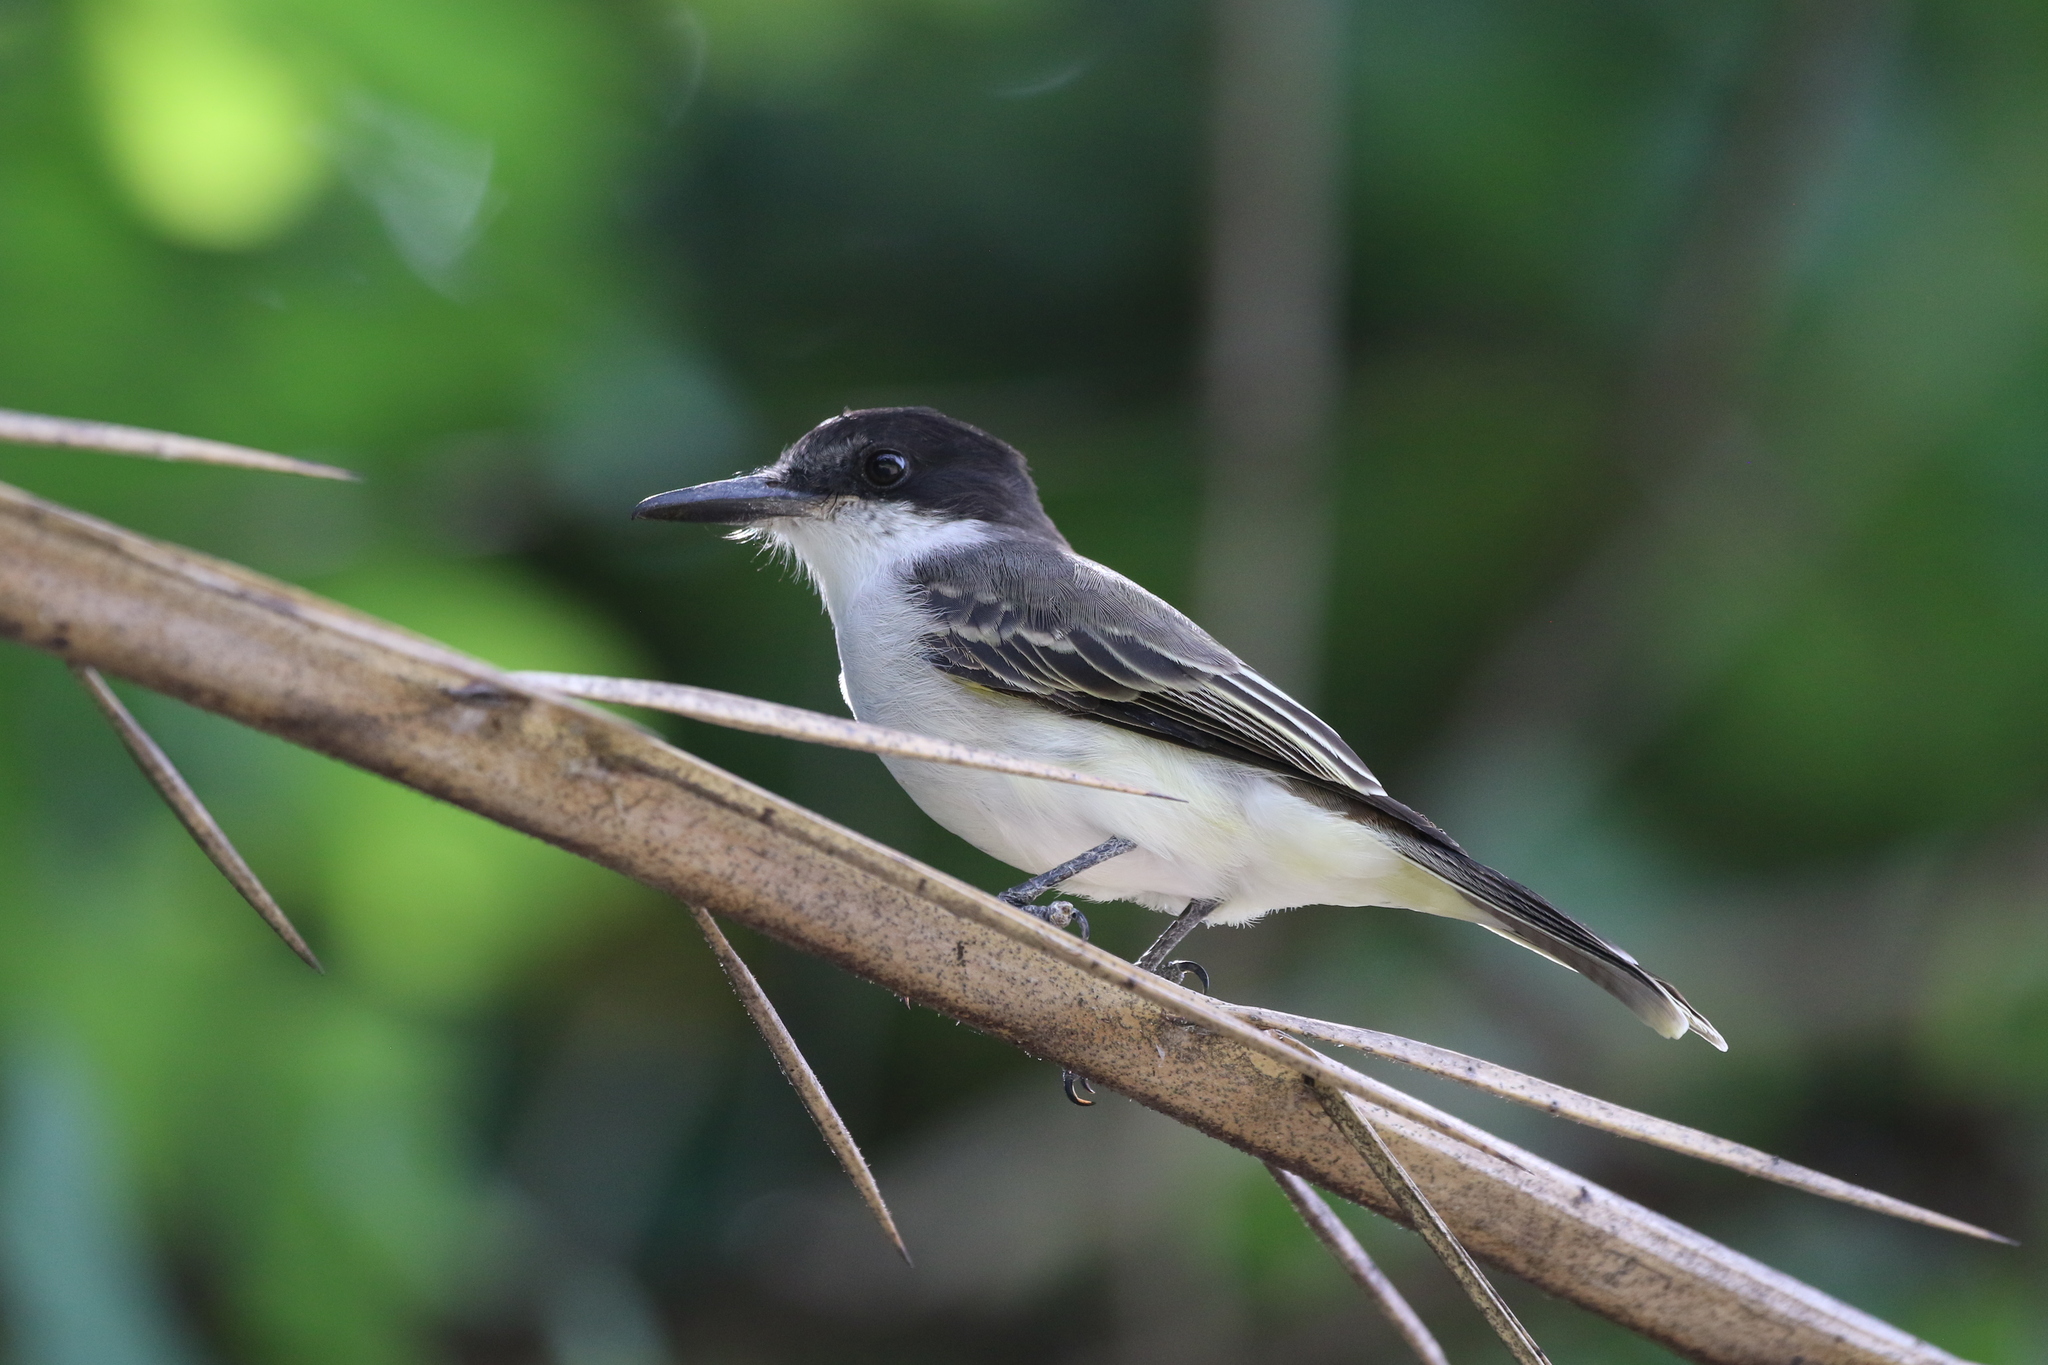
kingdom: Animalia
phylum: Chordata
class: Aves
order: Passeriformes
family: Tyrannidae
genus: Tyrannus
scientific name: Tyrannus caudifasciatus
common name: Loggerhead kingbird
